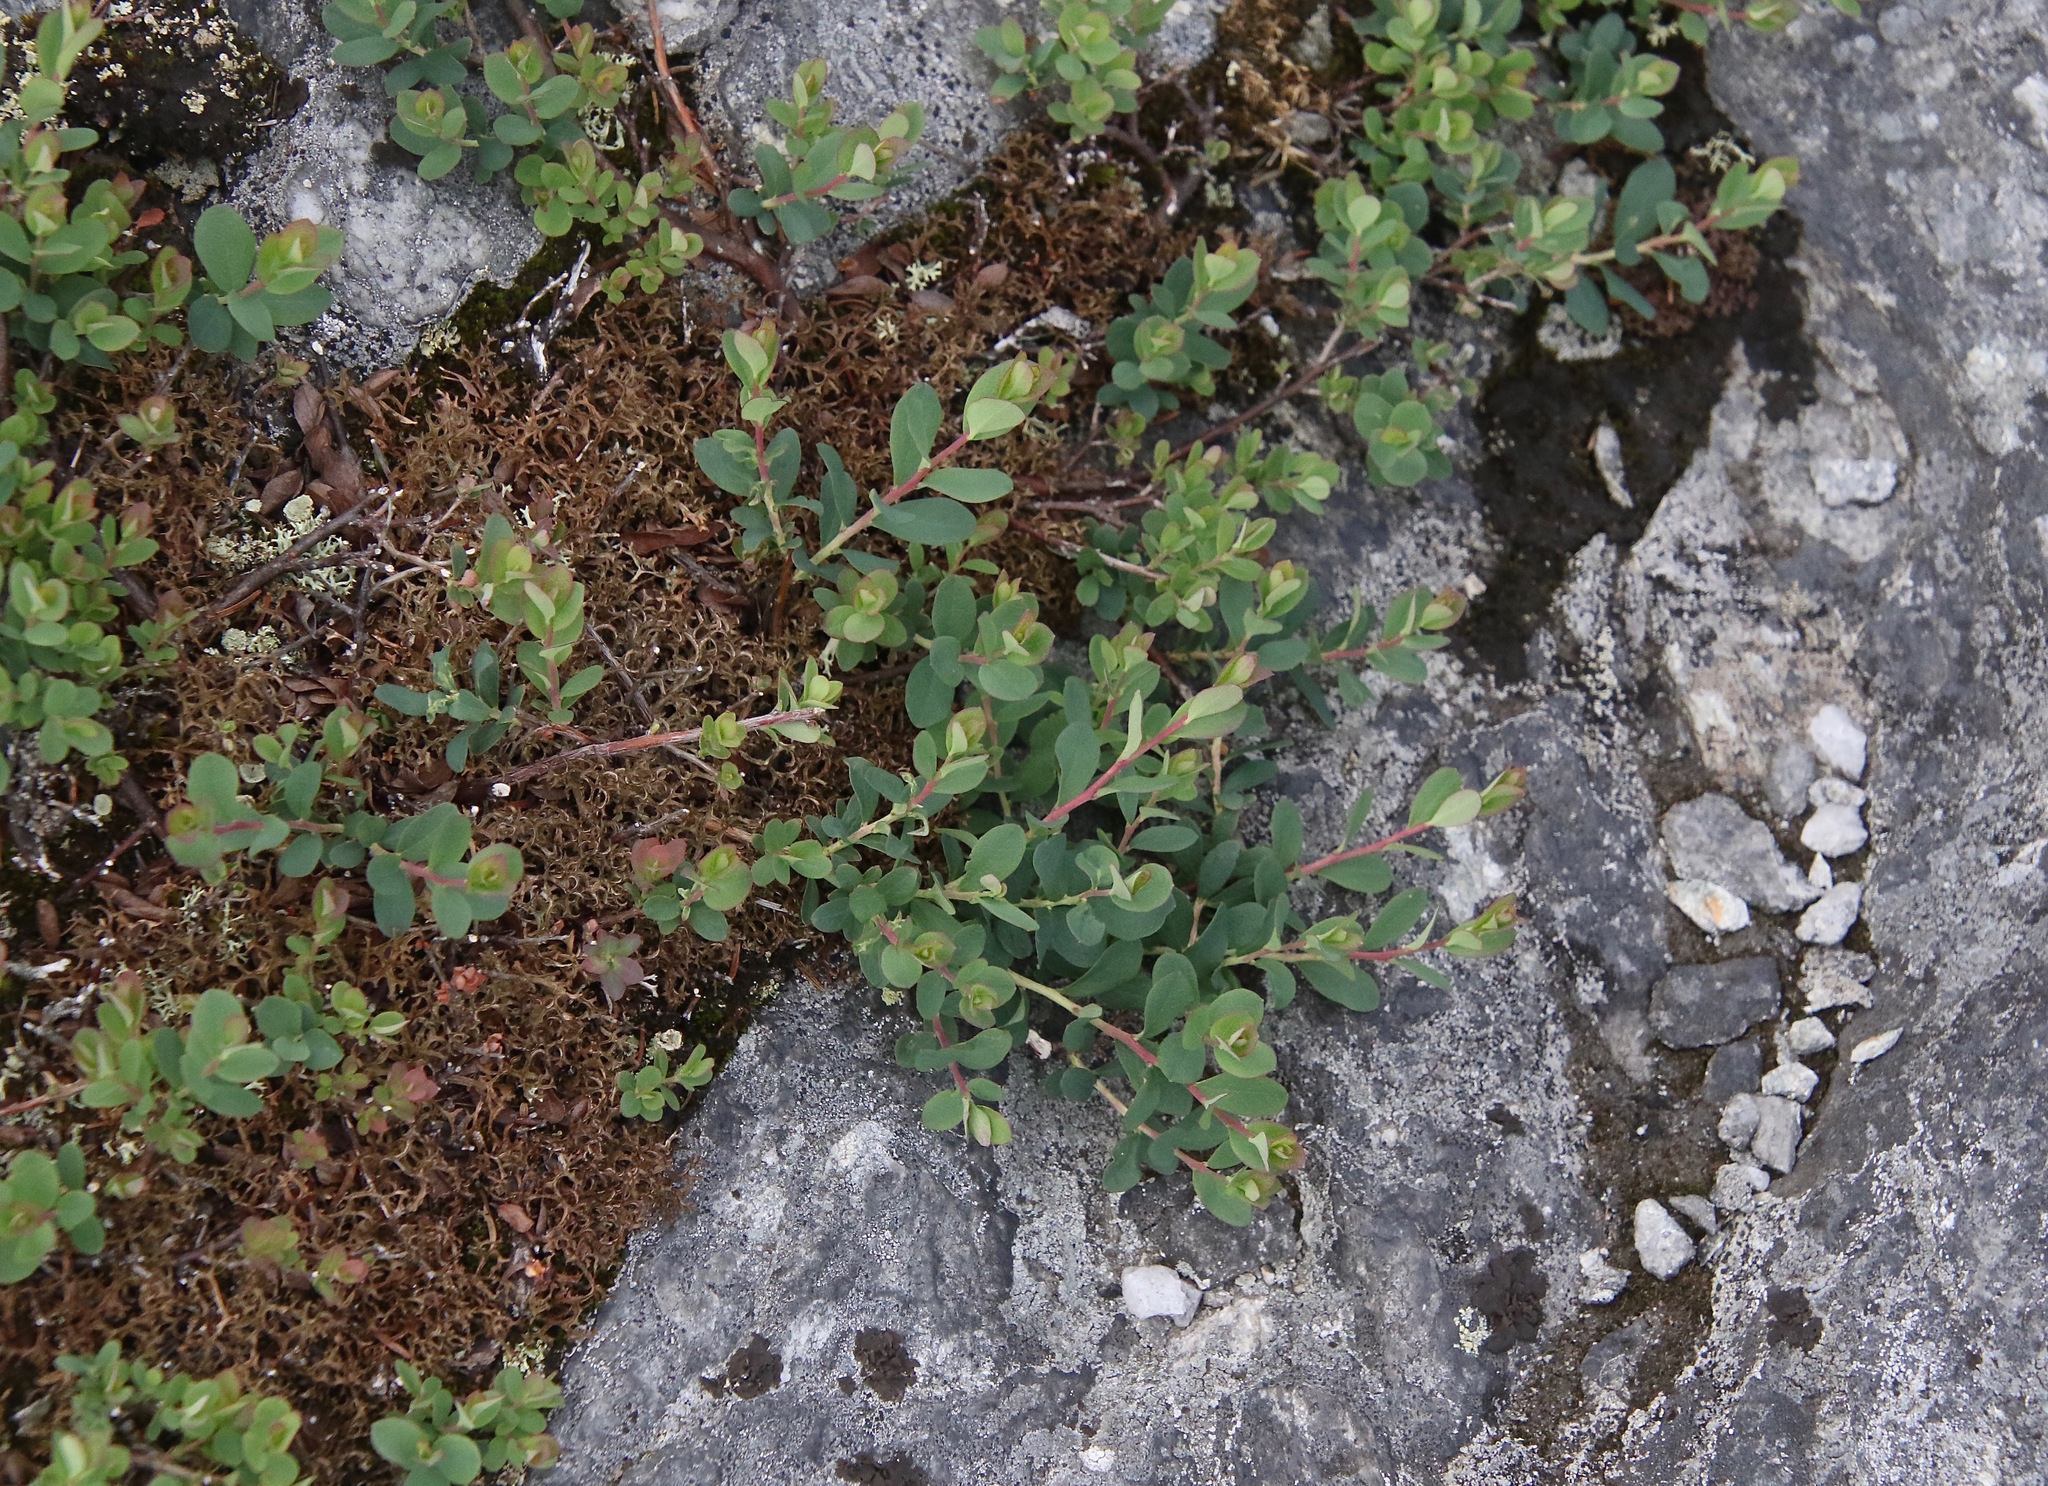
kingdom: Plantae
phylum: Tracheophyta
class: Magnoliopsida
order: Ericales
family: Ericaceae
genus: Vaccinium
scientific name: Vaccinium uliginosum
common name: Bog bilberry
